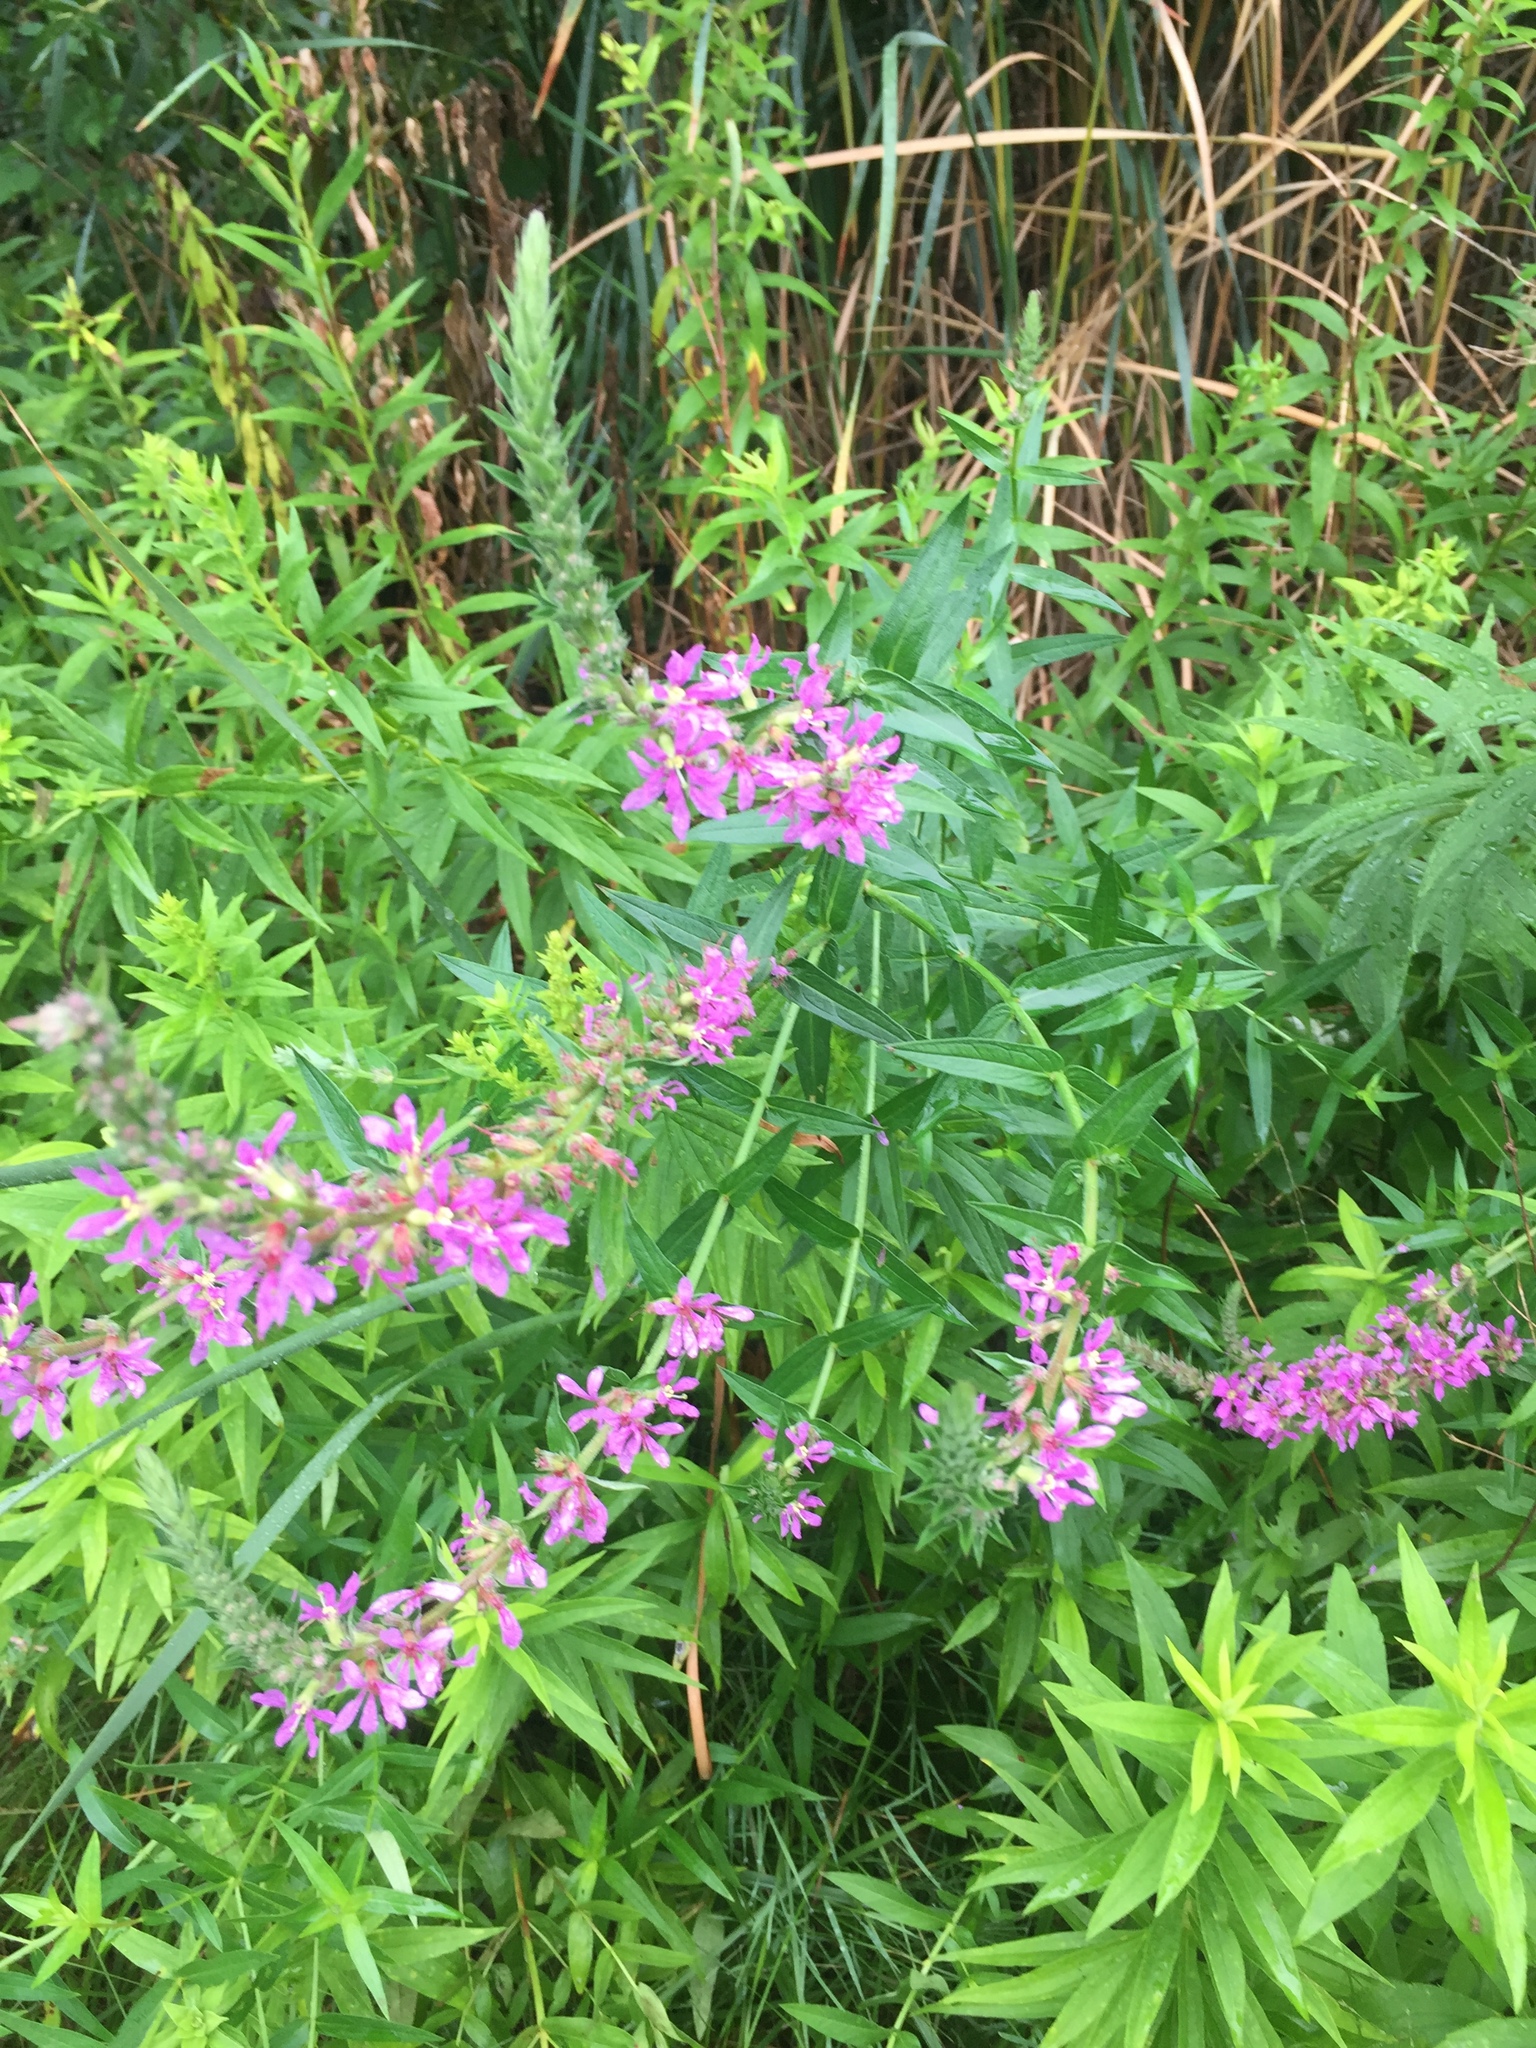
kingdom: Plantae
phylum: Tracheophyta
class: Magnoliopsida
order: Myrtales
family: Lythraceae
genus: Lythrum
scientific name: Lythrum salicaria
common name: Purple loosestrife
